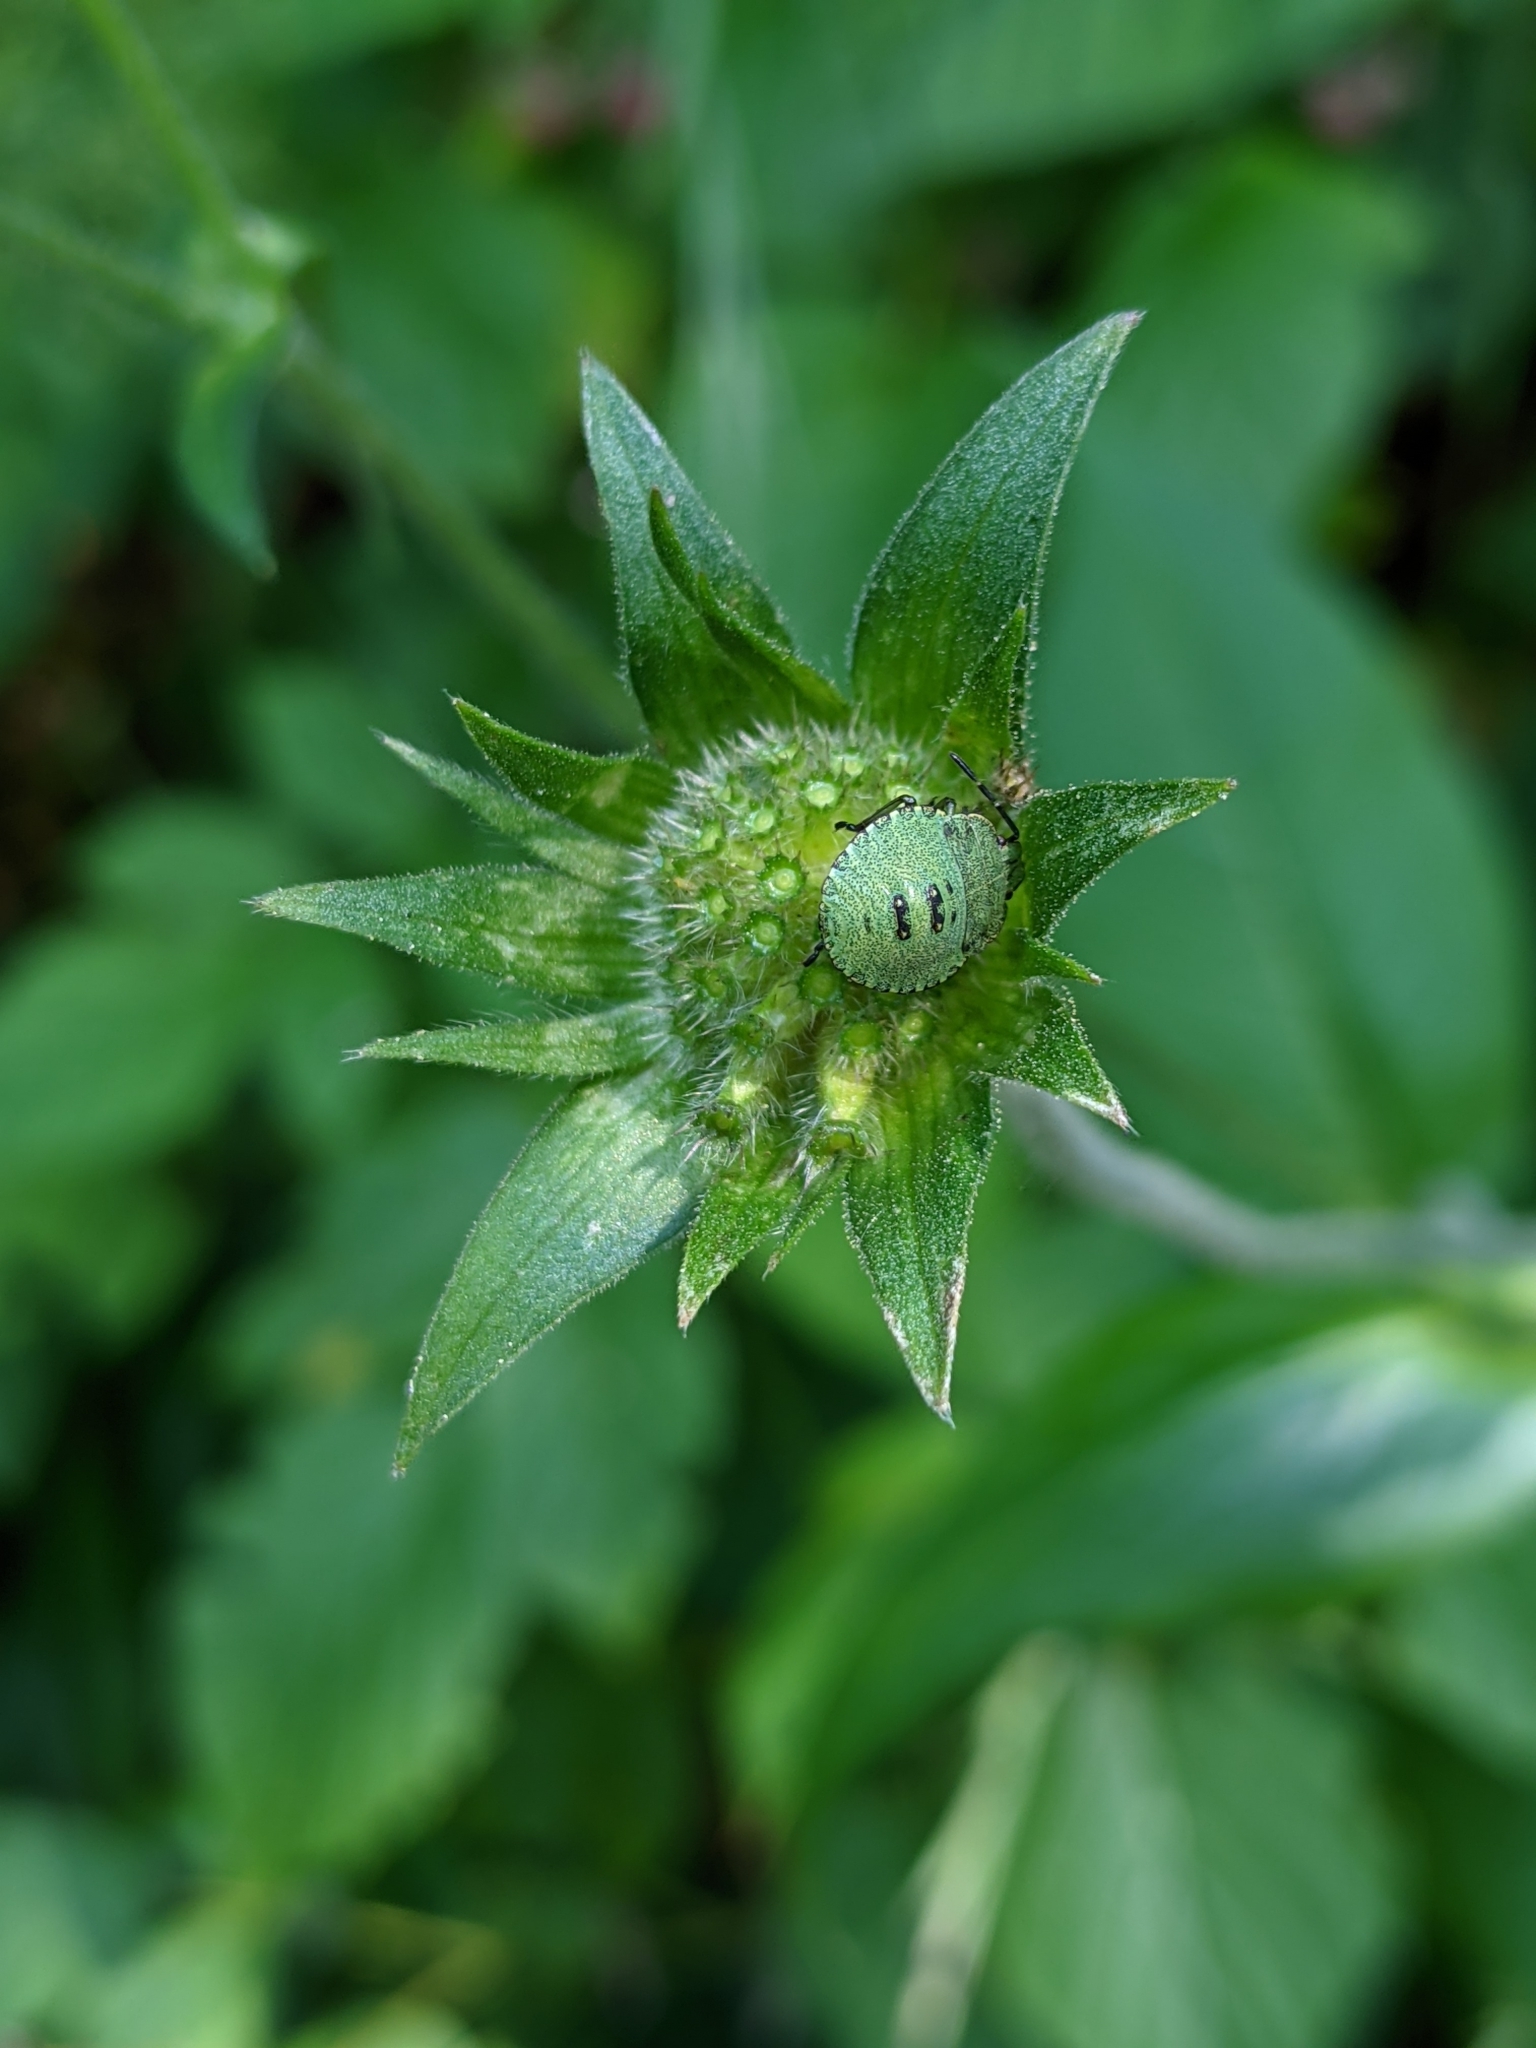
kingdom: Animalia
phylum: Arthropoda
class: Insecta
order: Hemiptera
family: Pentatomidae
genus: Palomena
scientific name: Palomena prasina
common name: Green shieldbug
